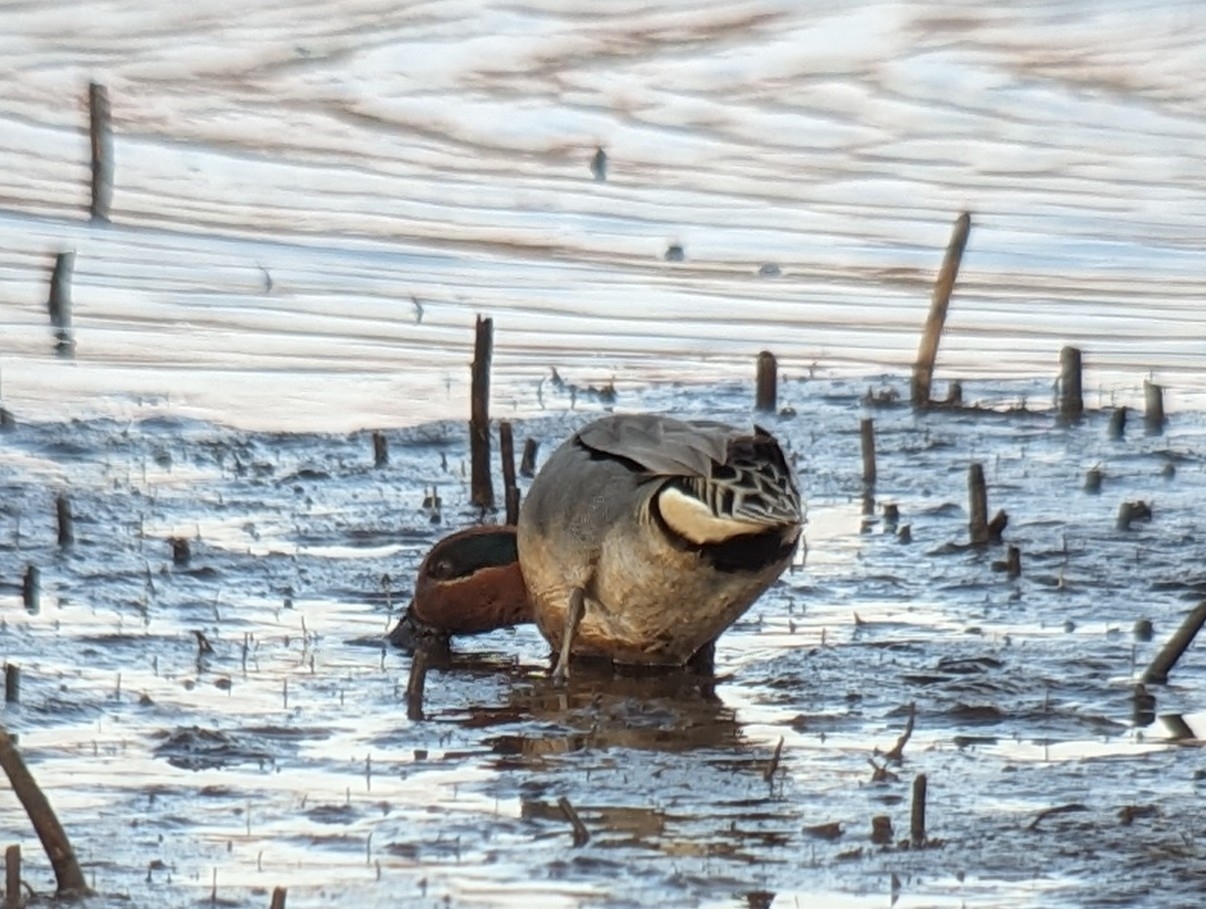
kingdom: Animalia
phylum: Chordata
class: Aves
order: Anseriformes
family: Anatidae
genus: Anas
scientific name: Anas carolinensis
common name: Green-winged teal
